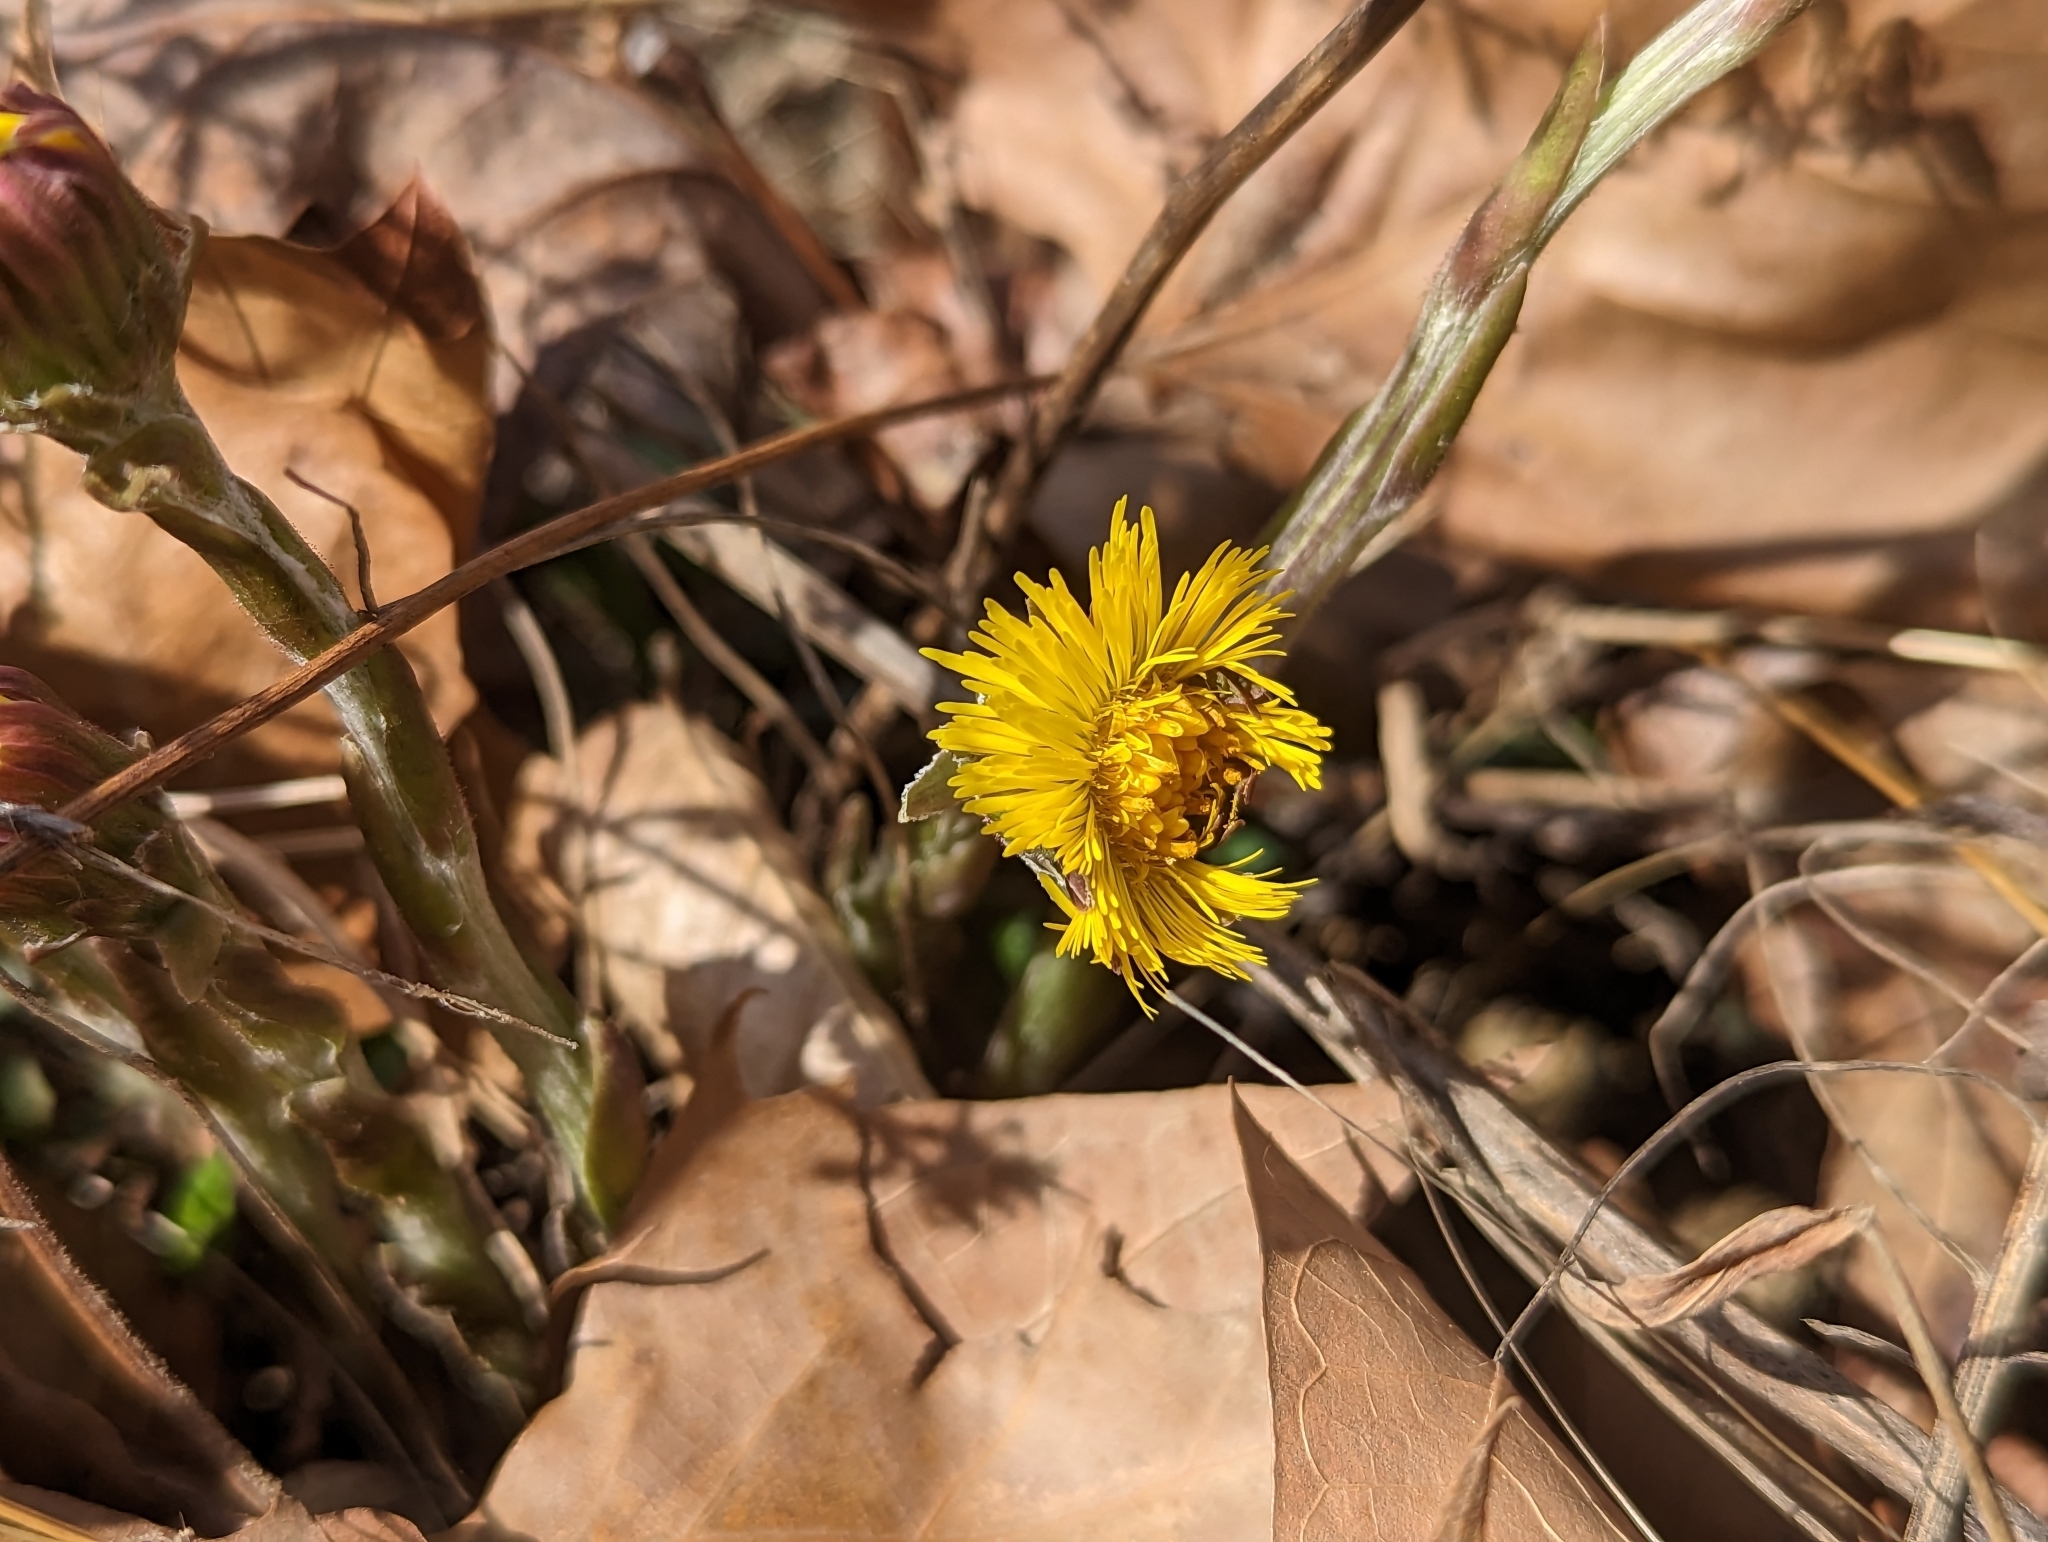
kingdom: Plantae
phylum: Tracheophyta
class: Magnoliopsida
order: Asterales
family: Asteraceae
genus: Tussilago
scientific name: Tussilago farfara
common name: Coltsfoot
